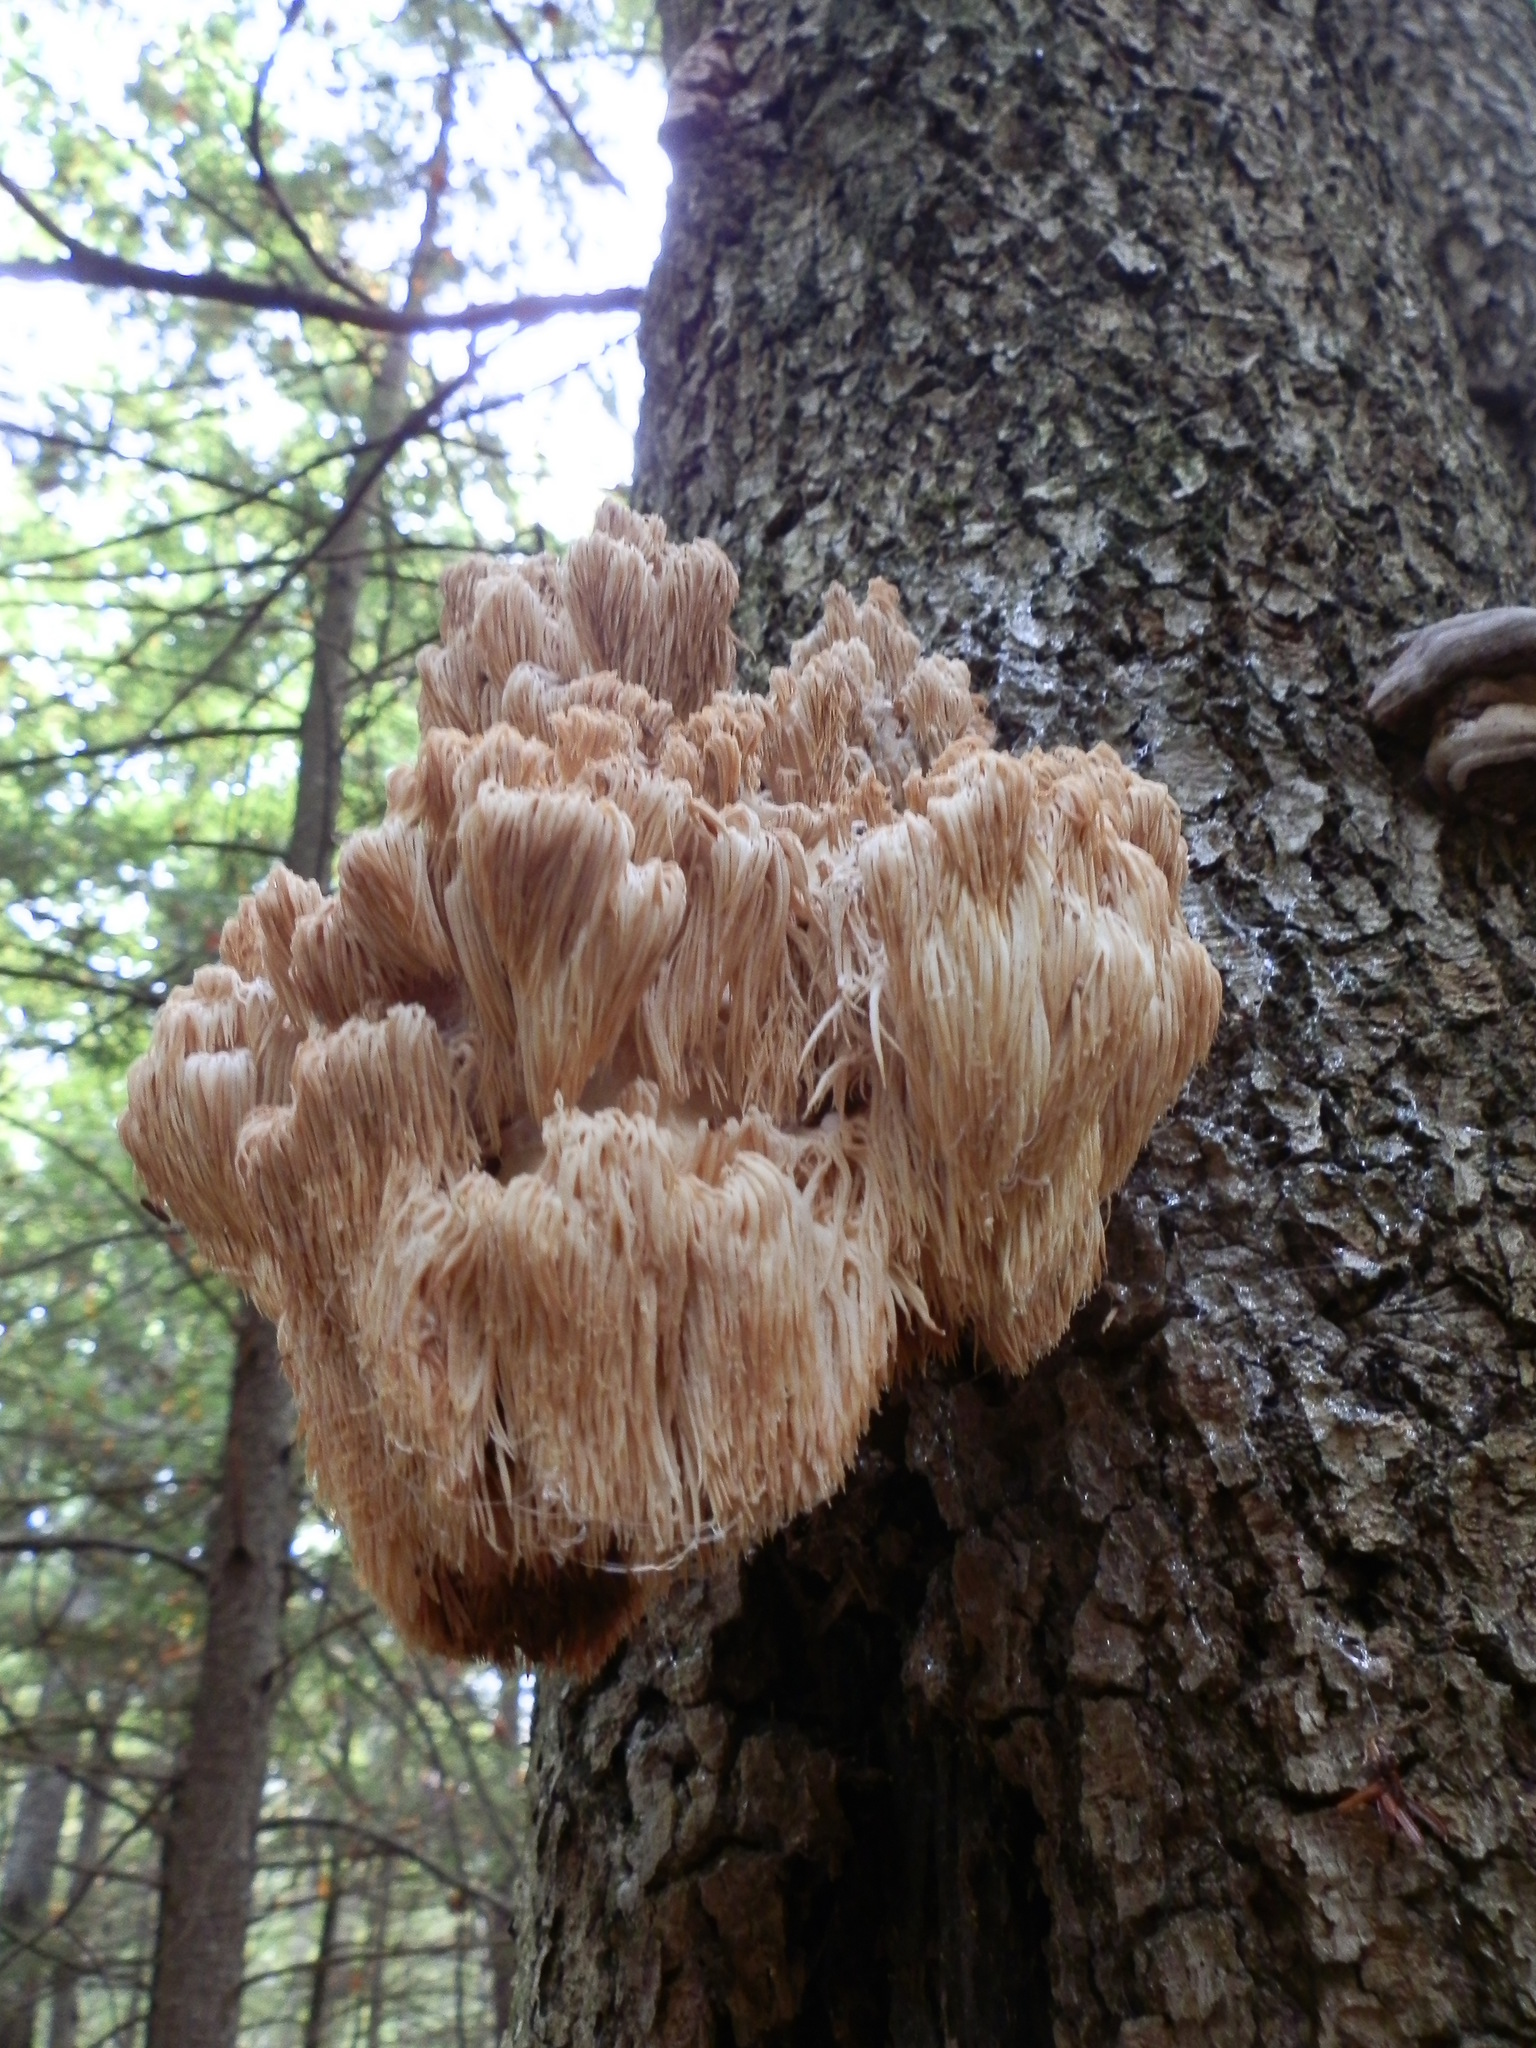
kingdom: Fungi
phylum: Basidiomycota
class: Agaricomycetes
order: Russulales
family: Hericiaceae
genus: Hericium
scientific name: Hericium americanum
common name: Bear's head tooth
